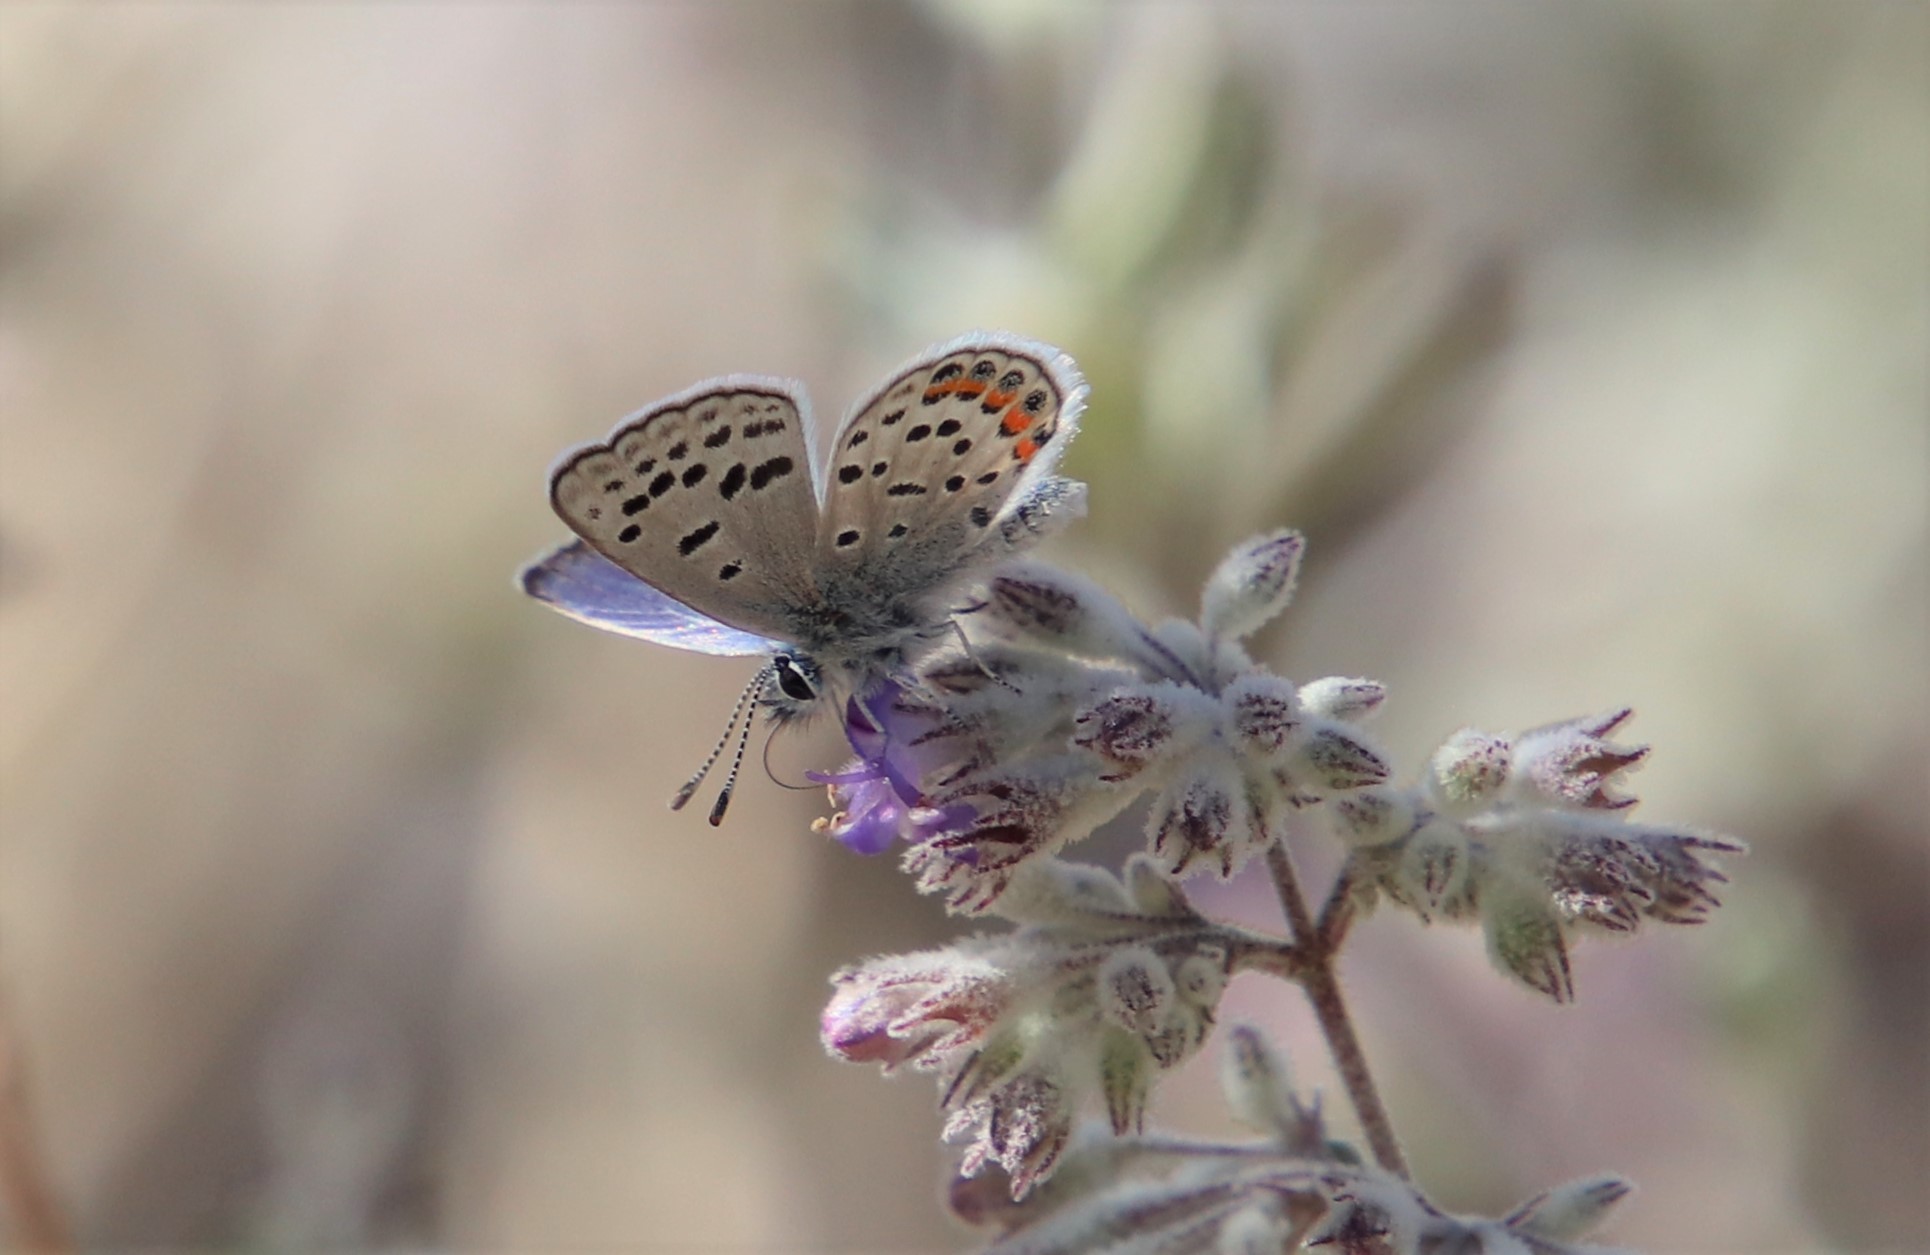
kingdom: Animalia
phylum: Arthropoda
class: Insecta
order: Lepidoptera
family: Lycaenidae
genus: Icaricia
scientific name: Icaricia acmon
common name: Acmon blue
